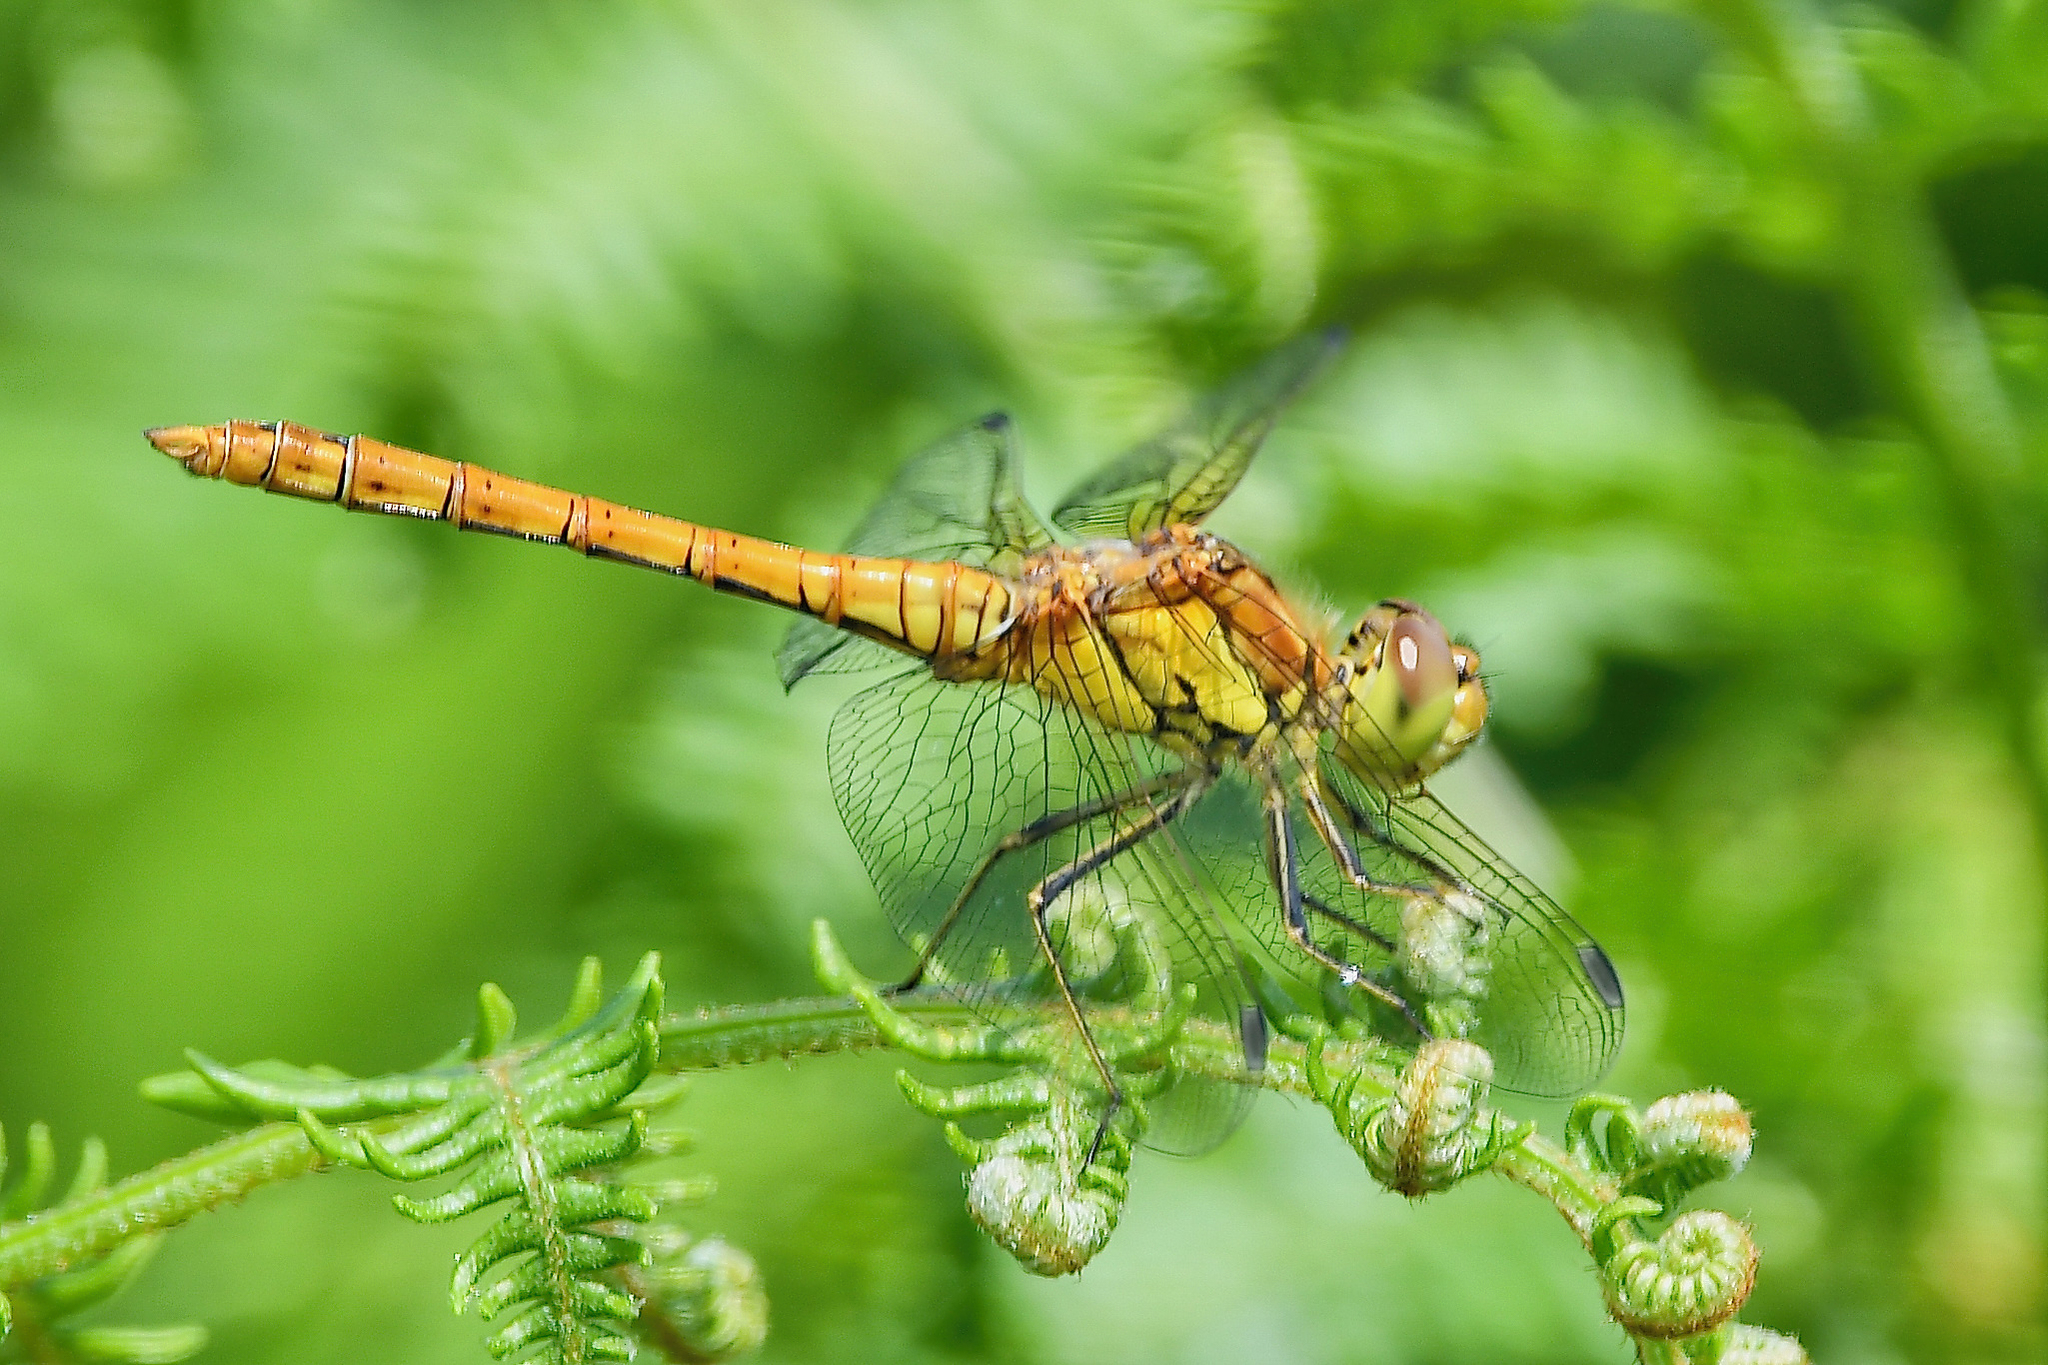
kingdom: Animalia
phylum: Arthropoda
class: Insecta
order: Odonata
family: Libellulidae
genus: Sympetrum
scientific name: Sympetrum striolatum
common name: Common darter
